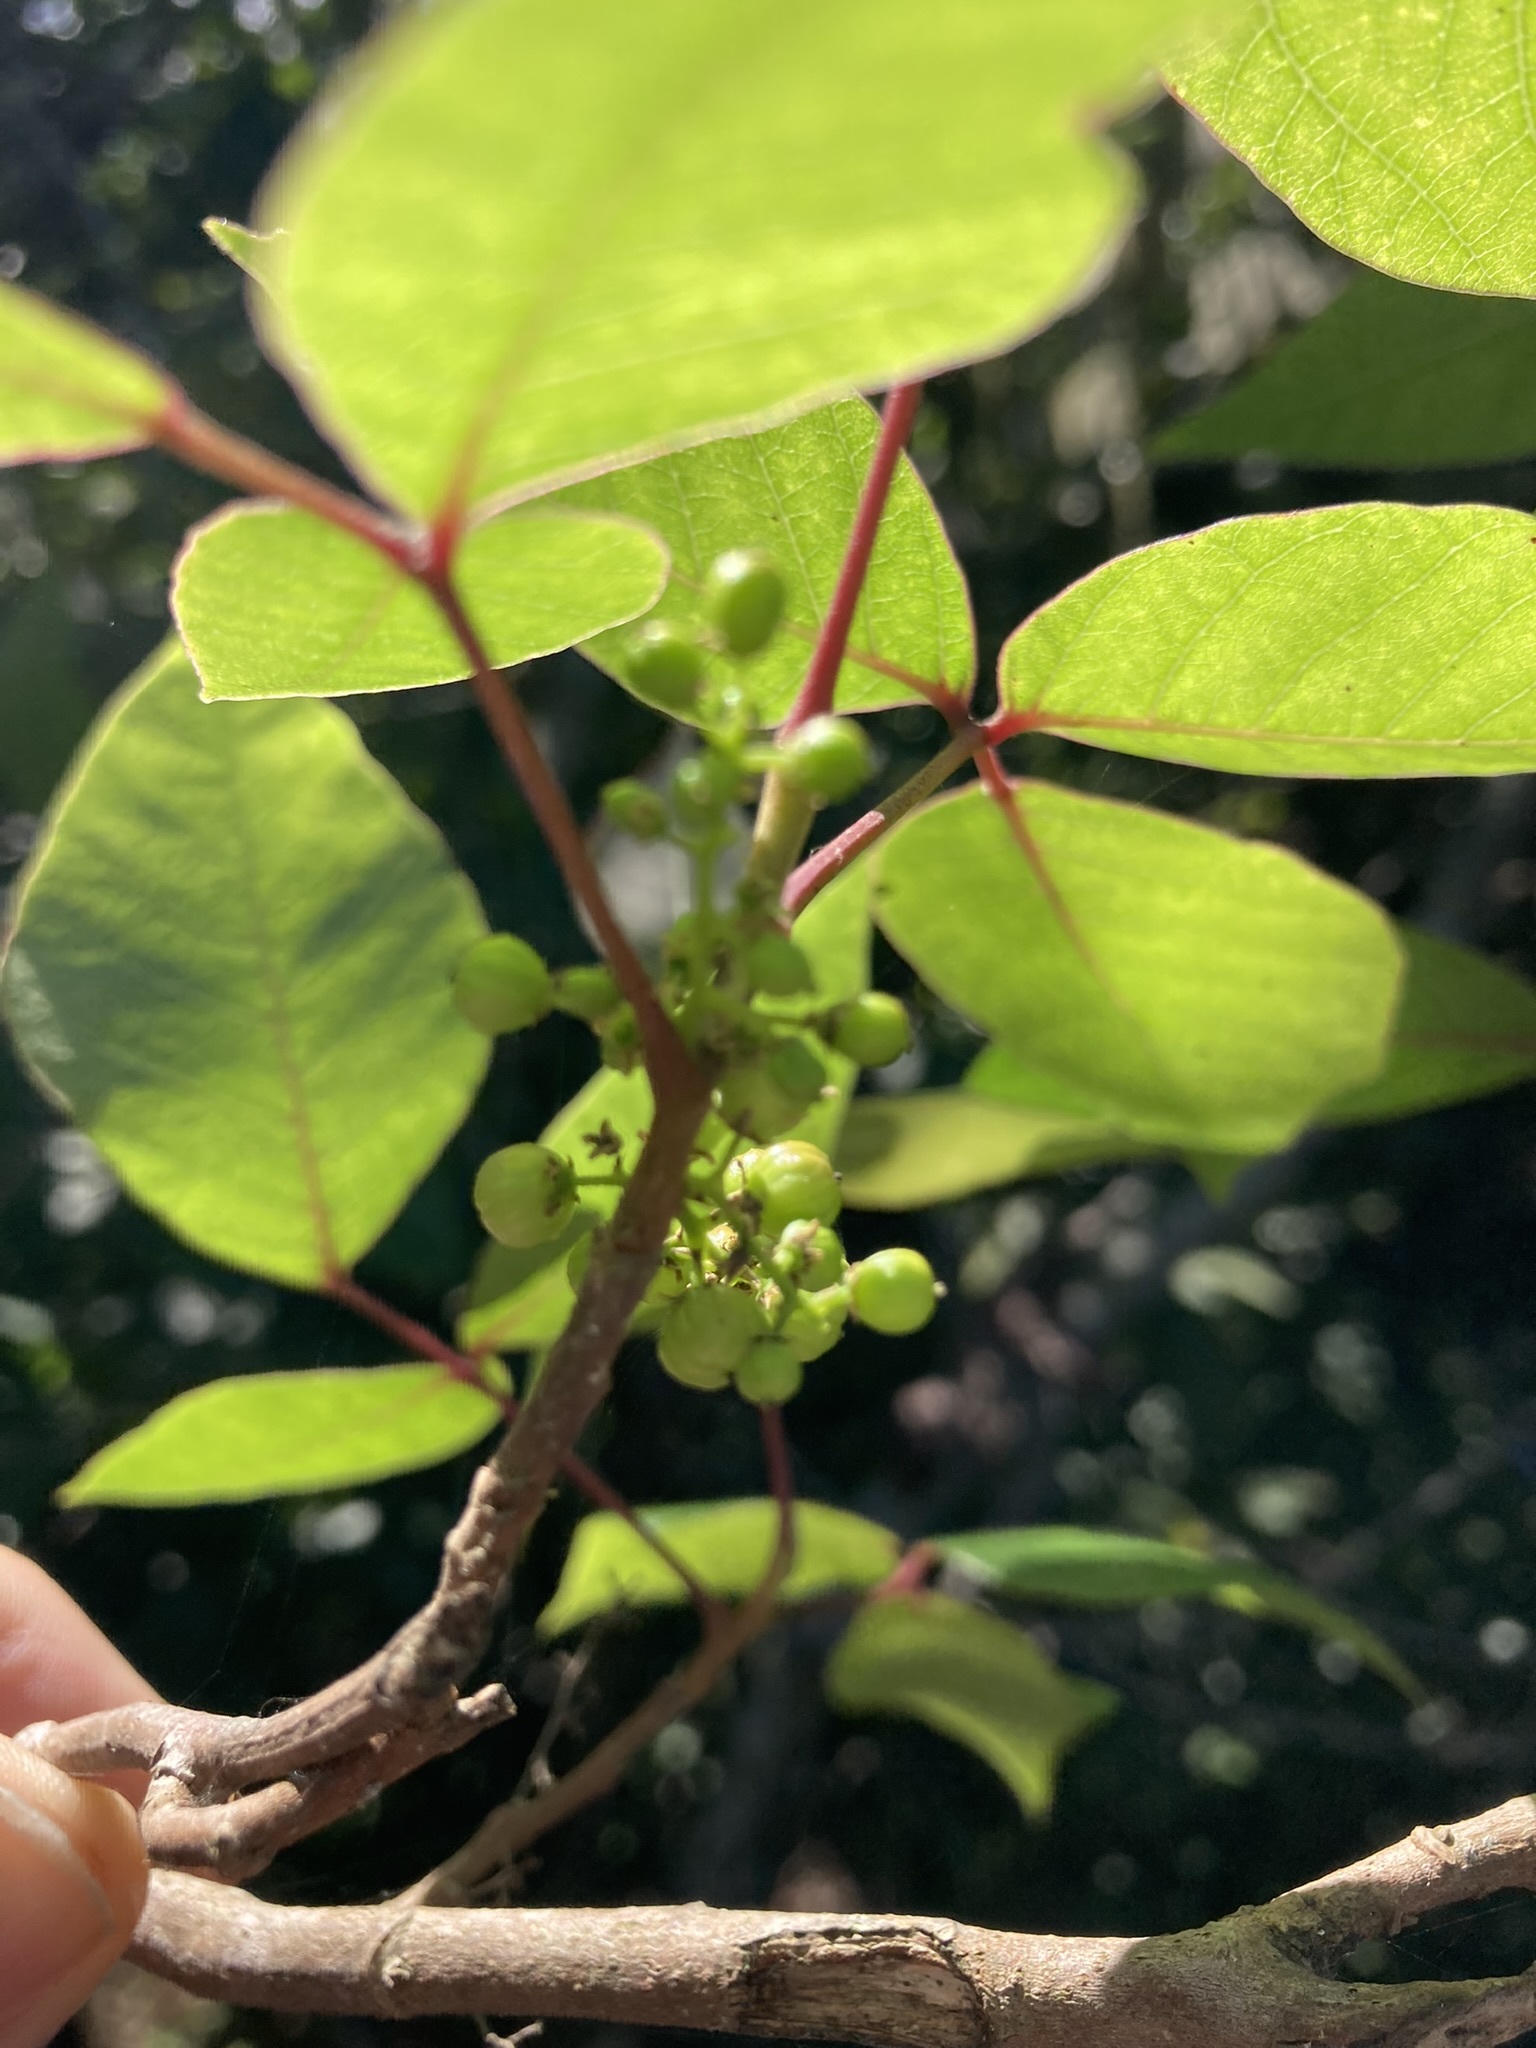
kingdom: Plantae
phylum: Tracheophyta
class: Magnoliopsida
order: Sapindales
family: Anacardiaceae
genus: Toxicodendron
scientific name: Toxicodendron radicans
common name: Poison ivy
